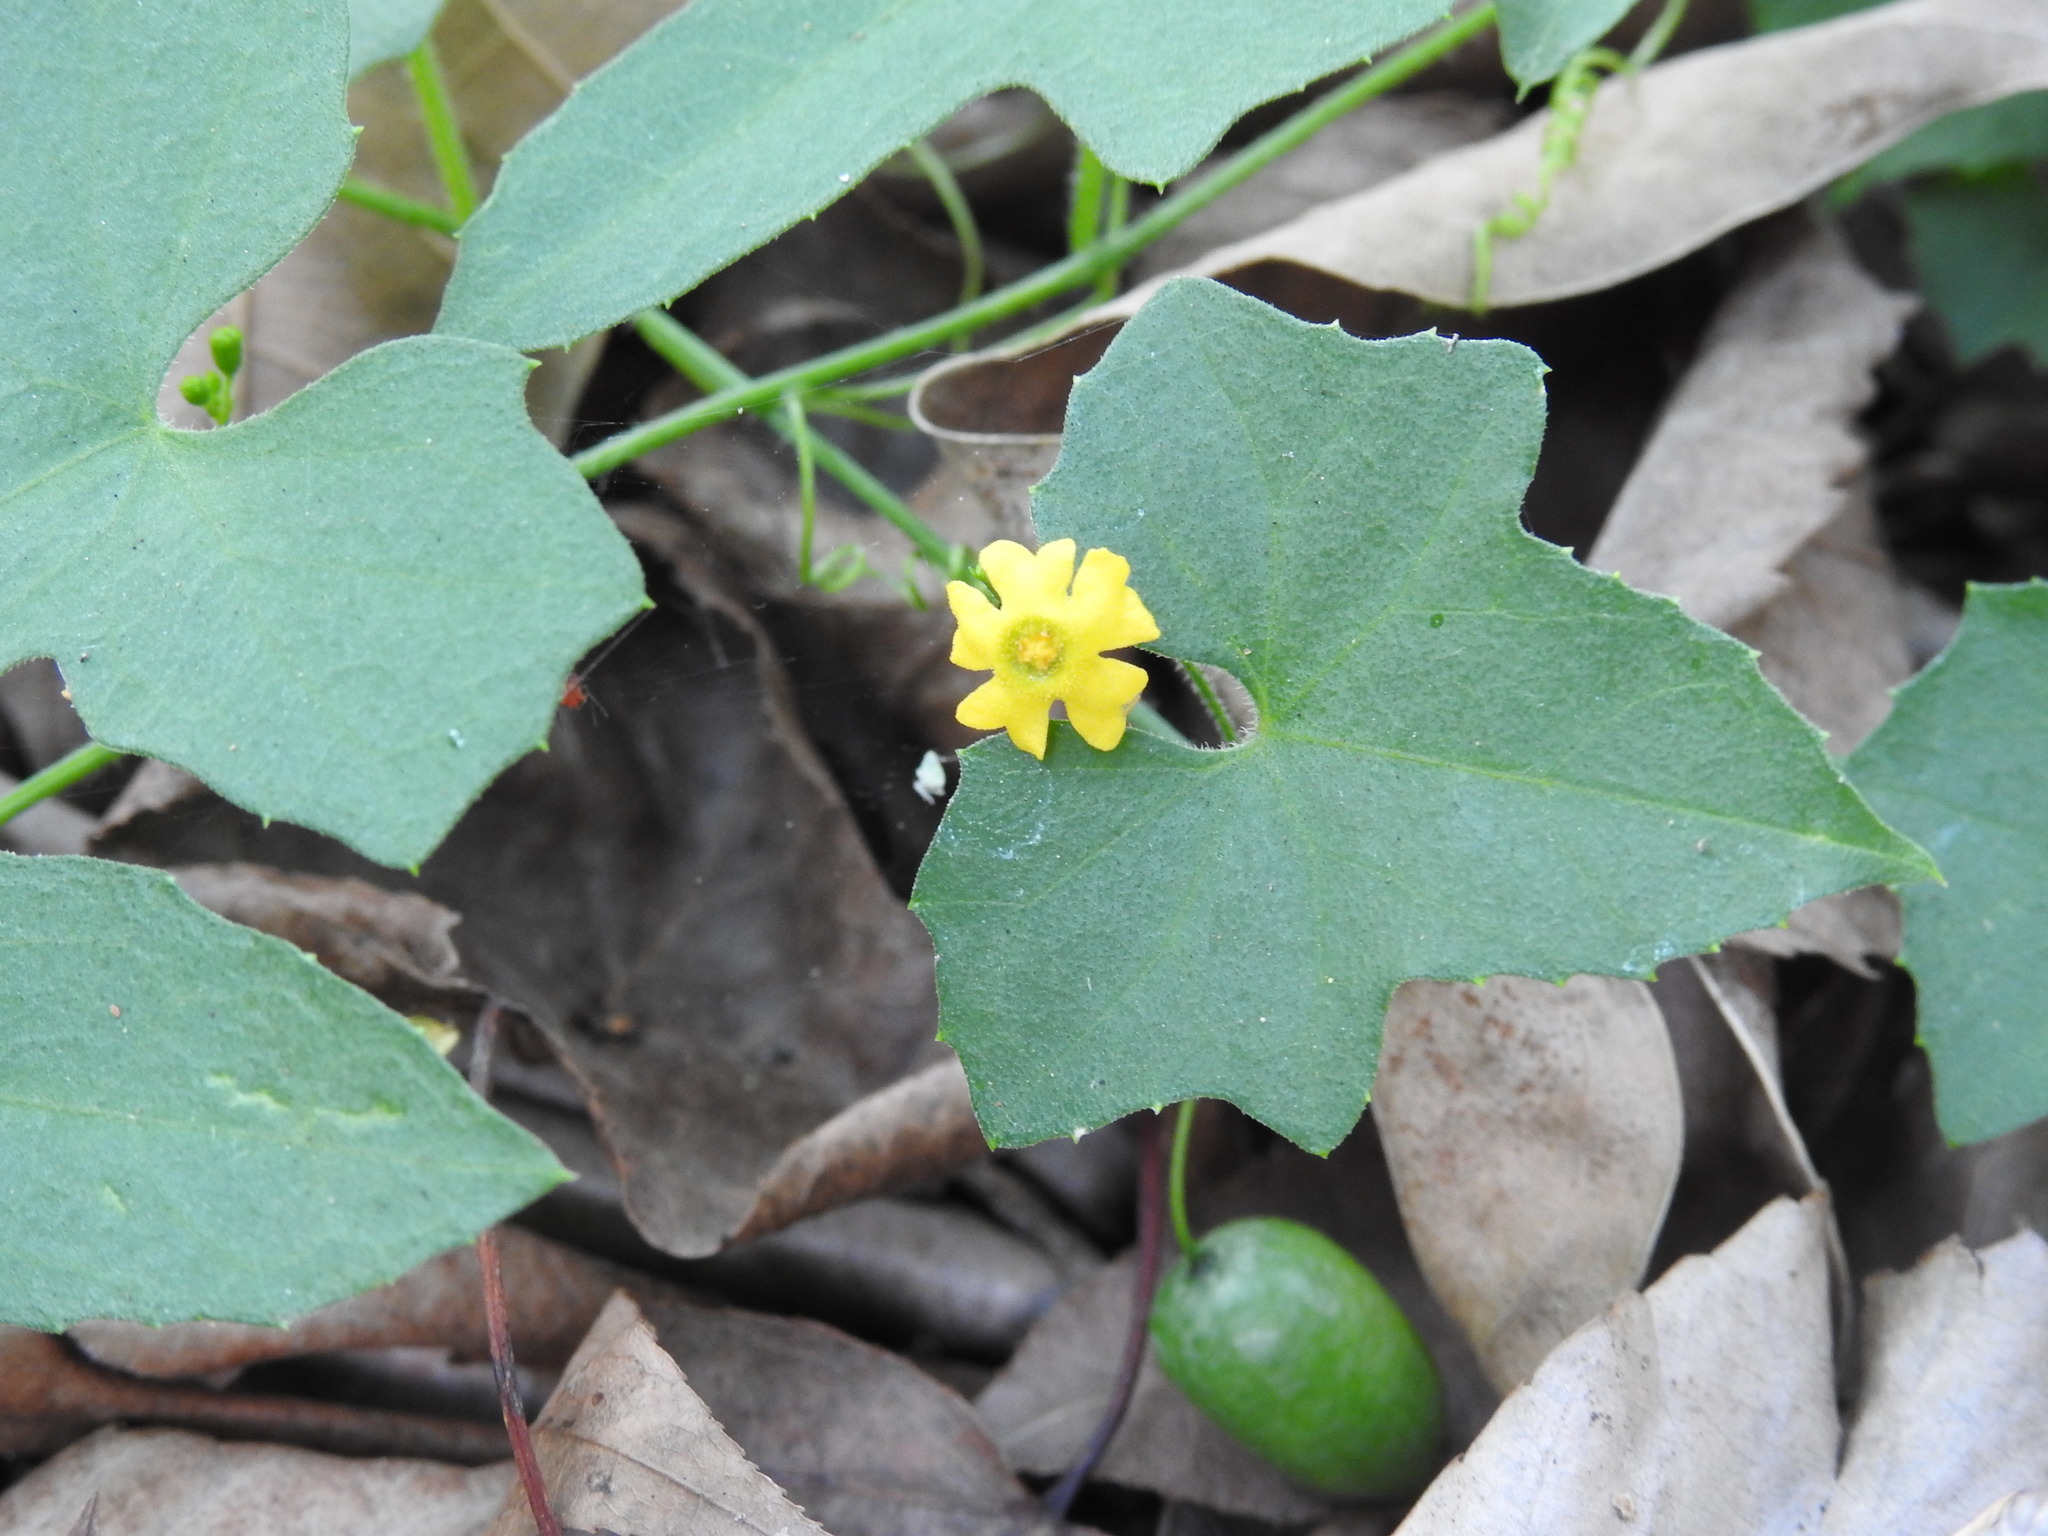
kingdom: Plantae
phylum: Tracheophyta
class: Magnoliopsida
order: Cucurbitales
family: Cucurbitaceae
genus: Melothria
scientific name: Melothria pendula
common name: Creeping-cucumber
